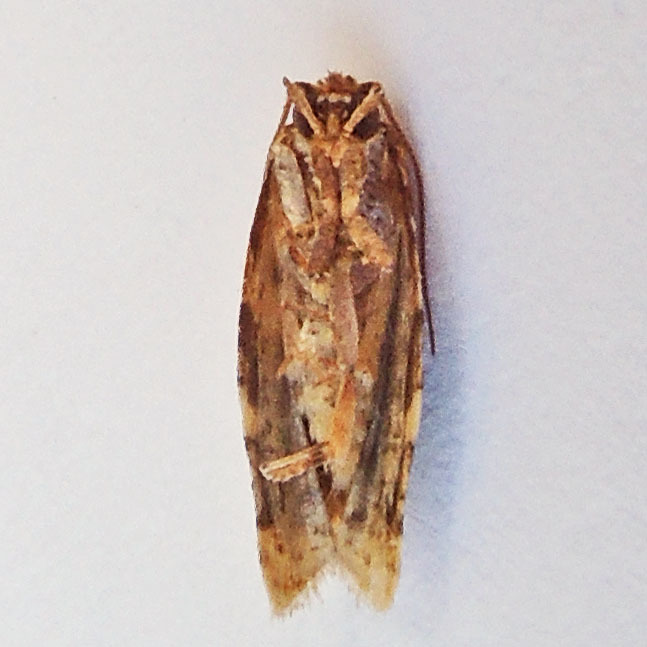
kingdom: Animalia
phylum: Arthropoda
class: Insecta
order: Lepidoptera
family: Tortricidae
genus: Argyrotaenia
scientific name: Argyrotaenia velutinana
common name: Red-banded leafroller moth
